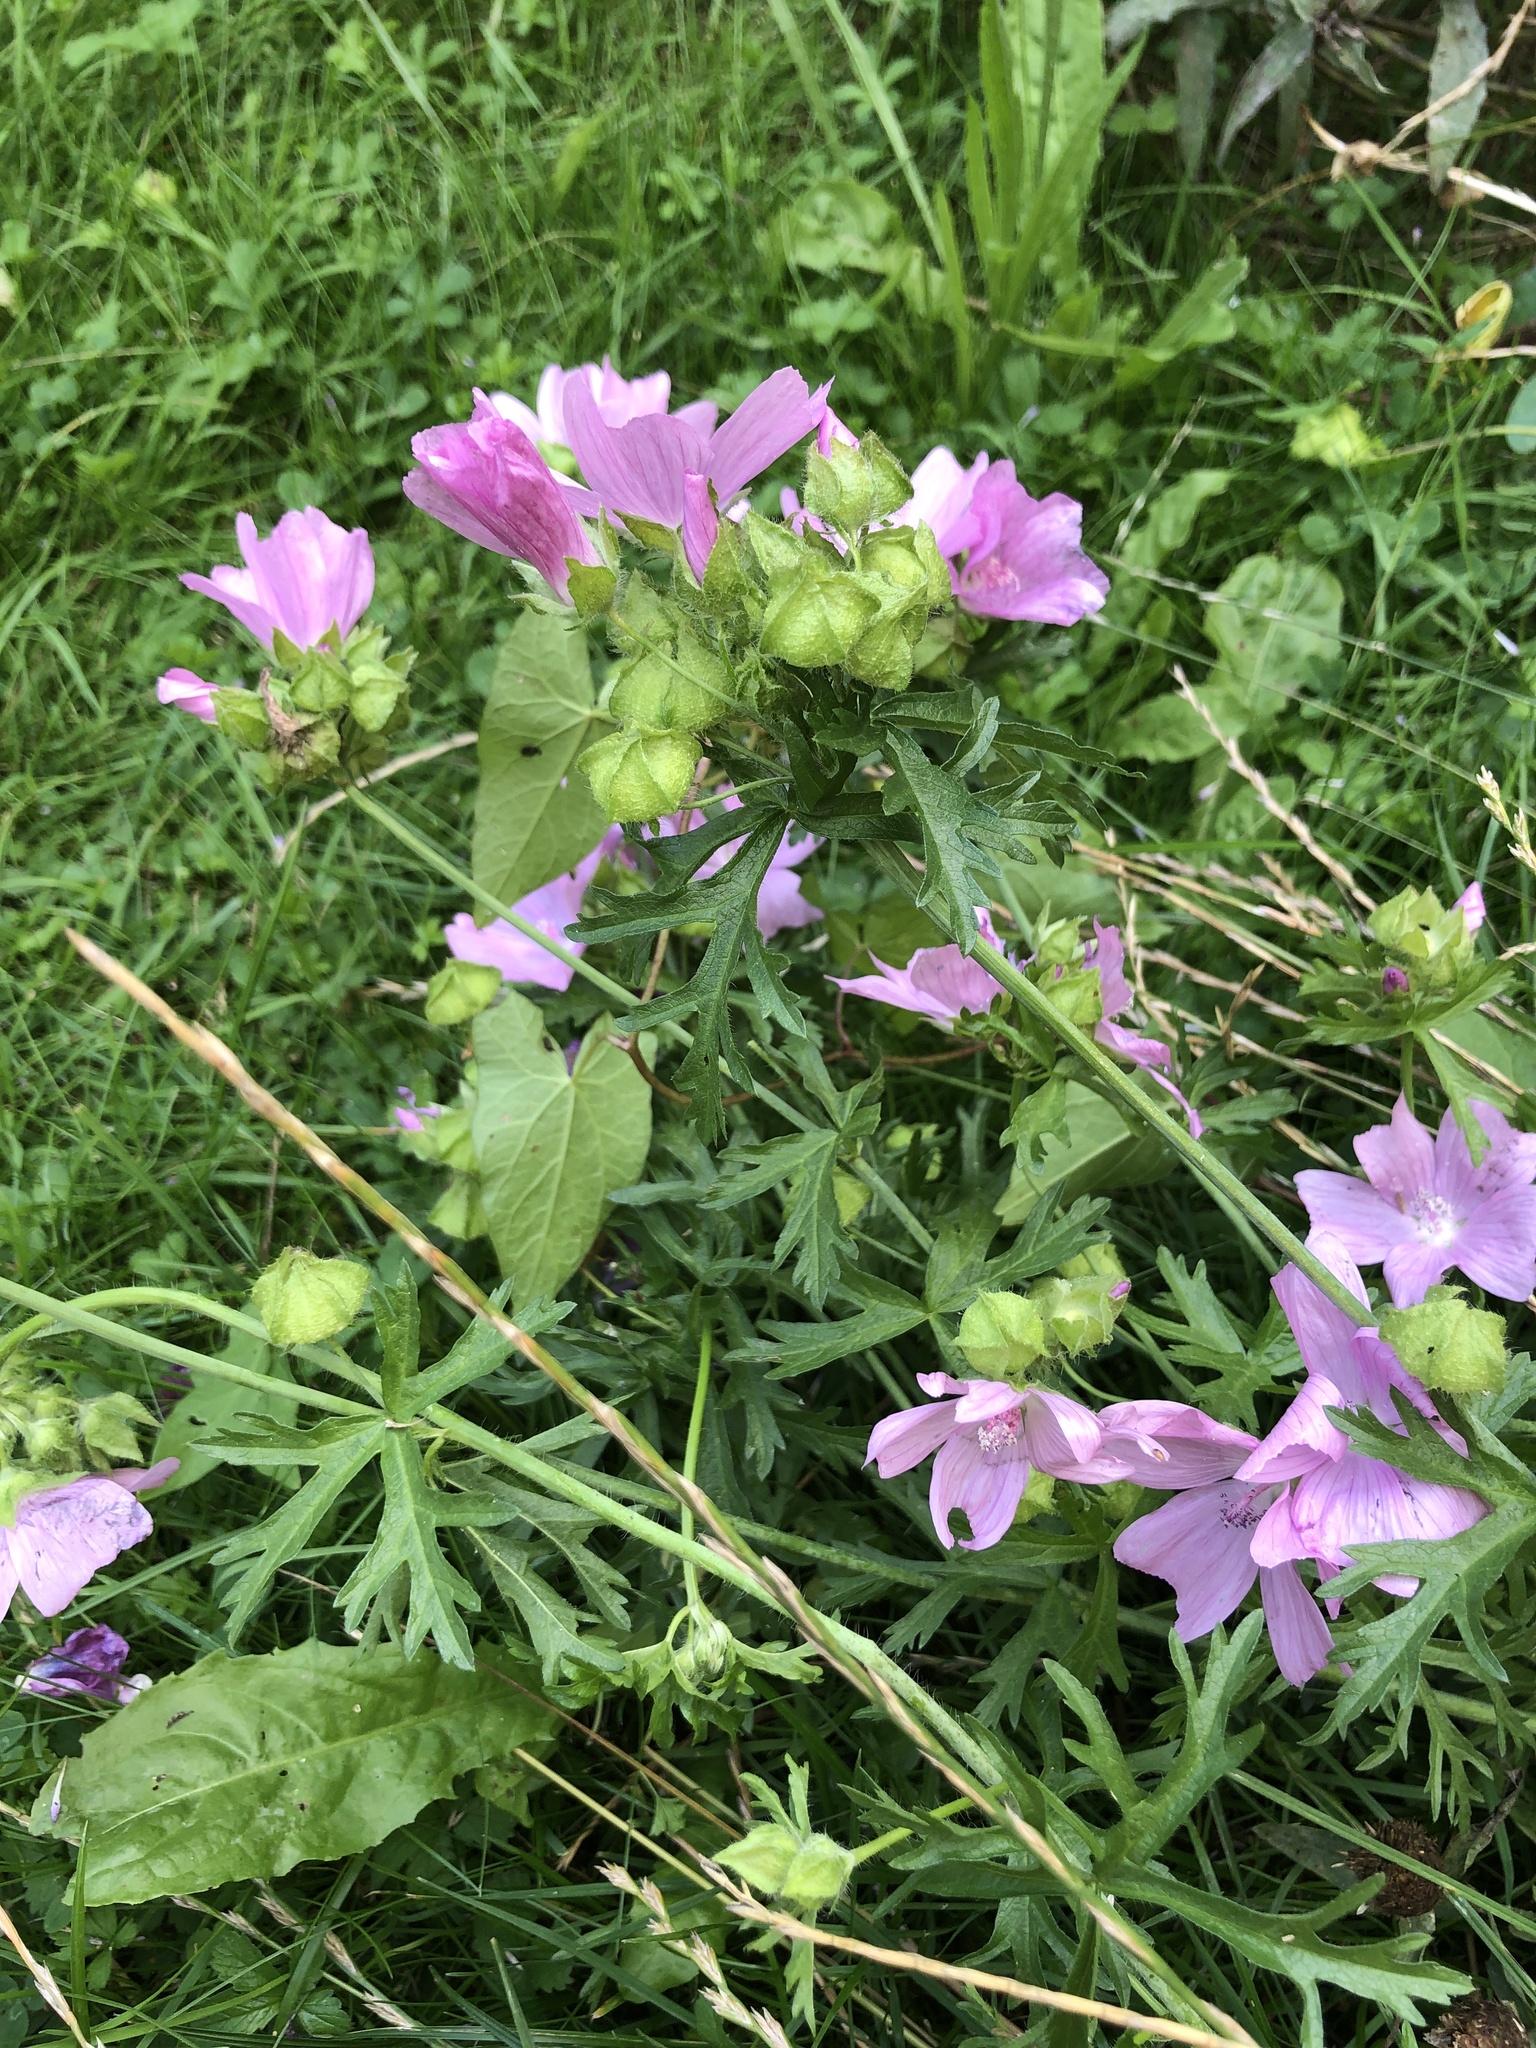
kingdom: Plantae
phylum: Tracheophyta
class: Magnoliopsida
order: Malvales
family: Malvaceae
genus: Malva
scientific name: Malva moschata
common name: Musk mallow
